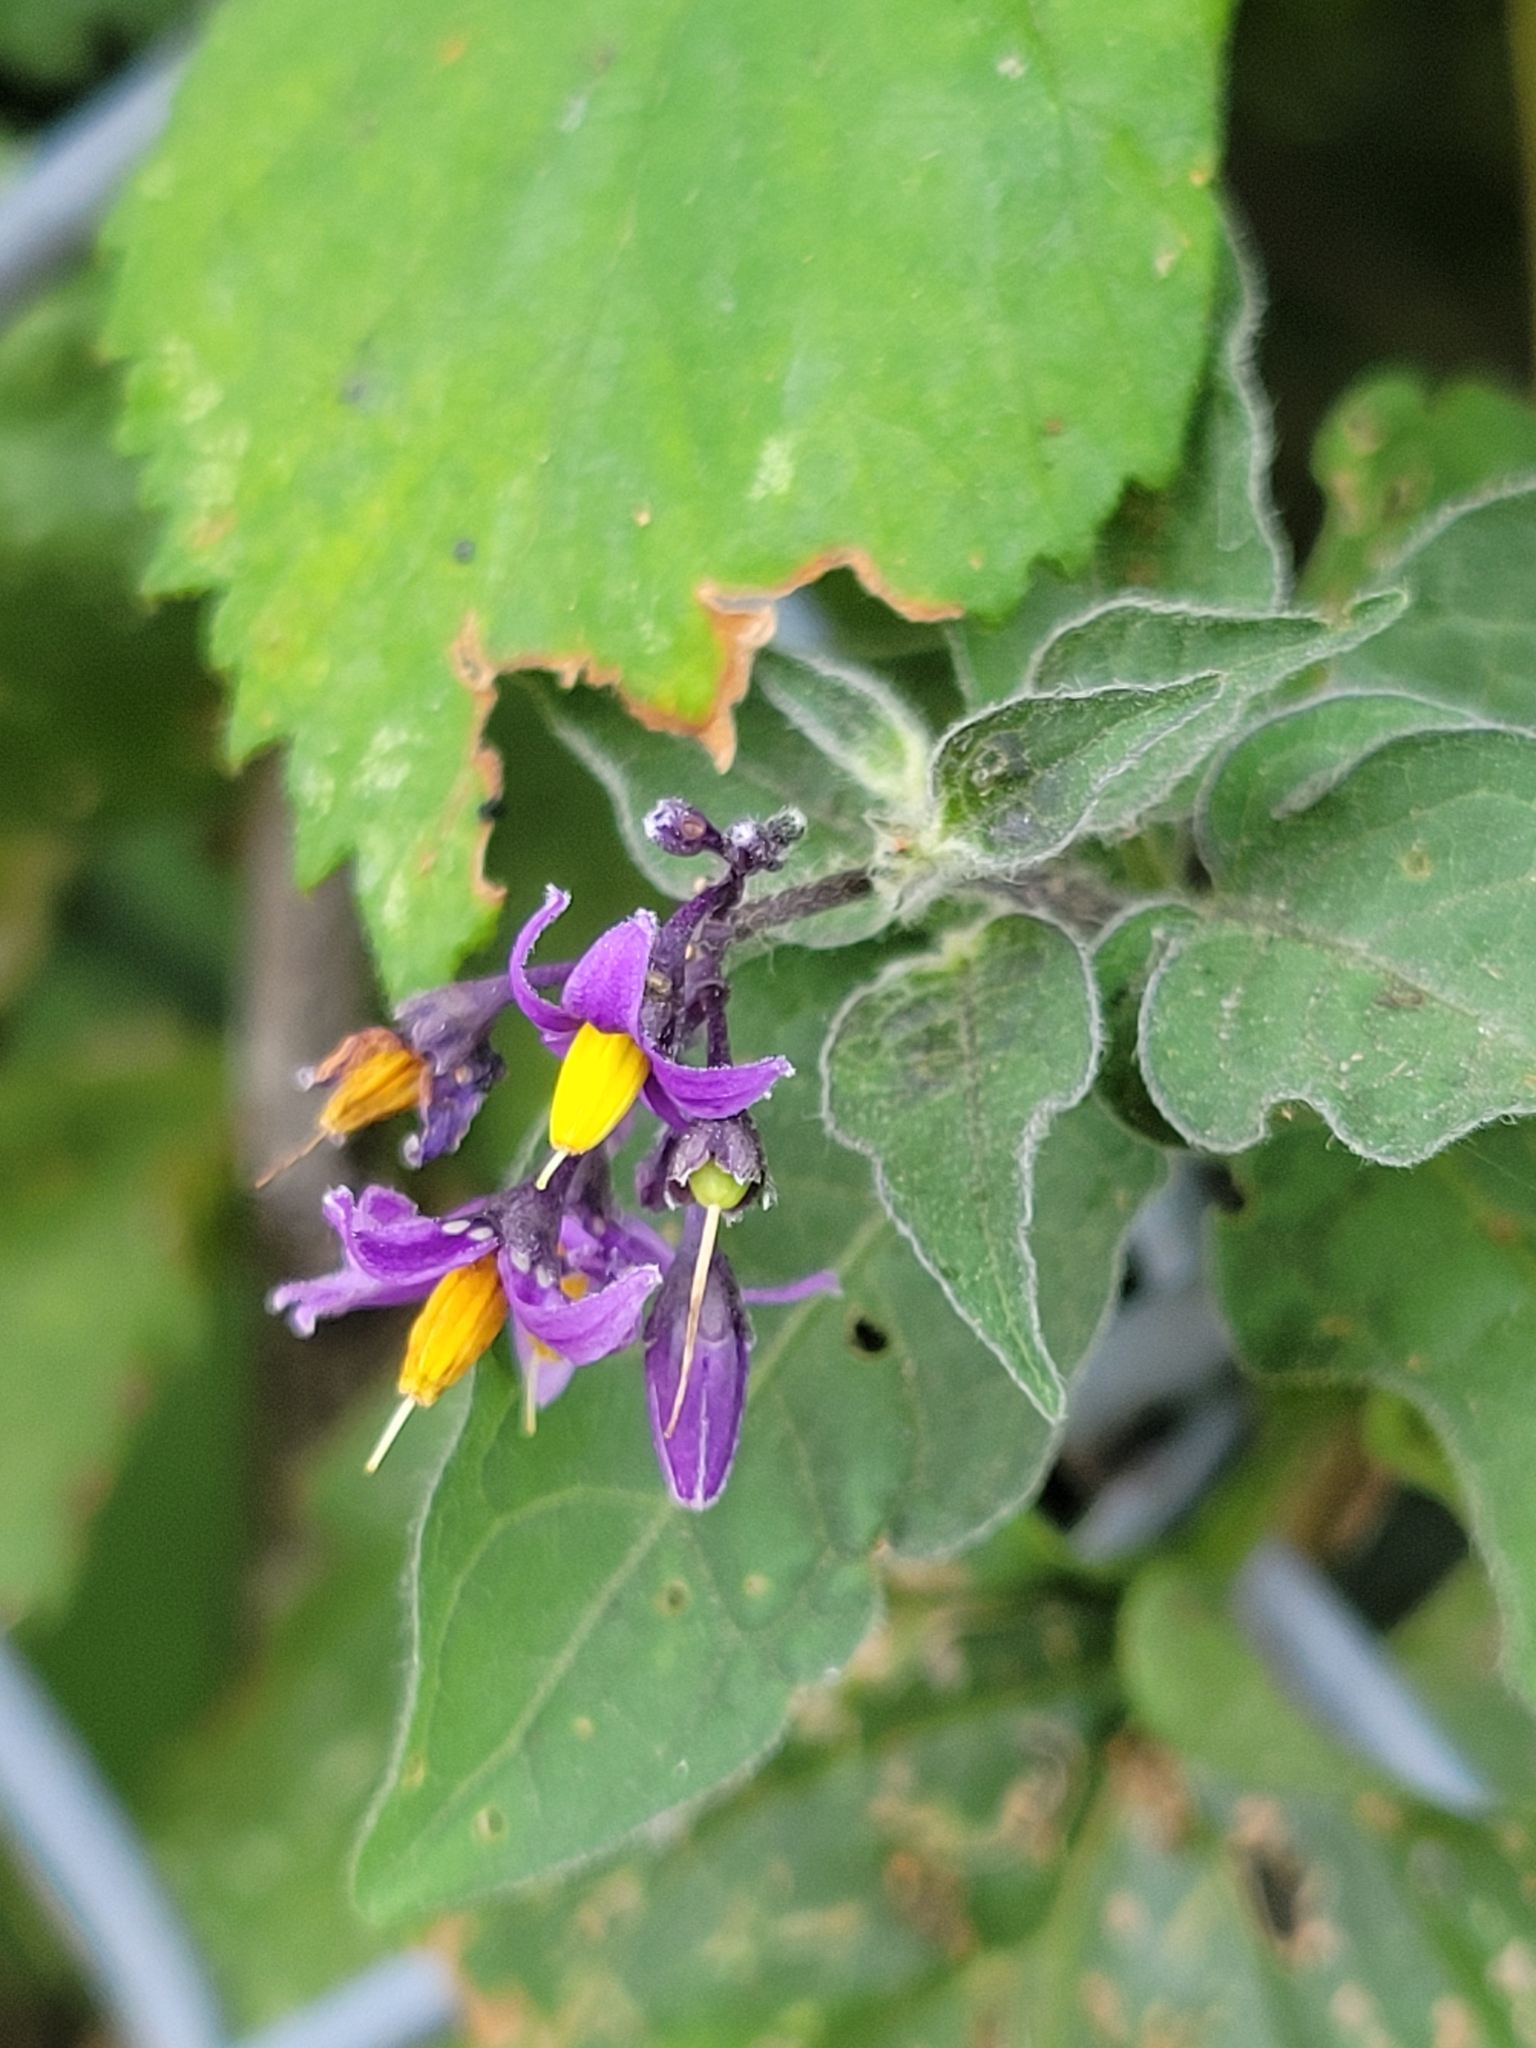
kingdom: Plantae
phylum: Tracheophyta
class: Magnoliopsida
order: Solanales
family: Solanaceae
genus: Solanum
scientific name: Solanum dulcamara
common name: Climbing nightshade
